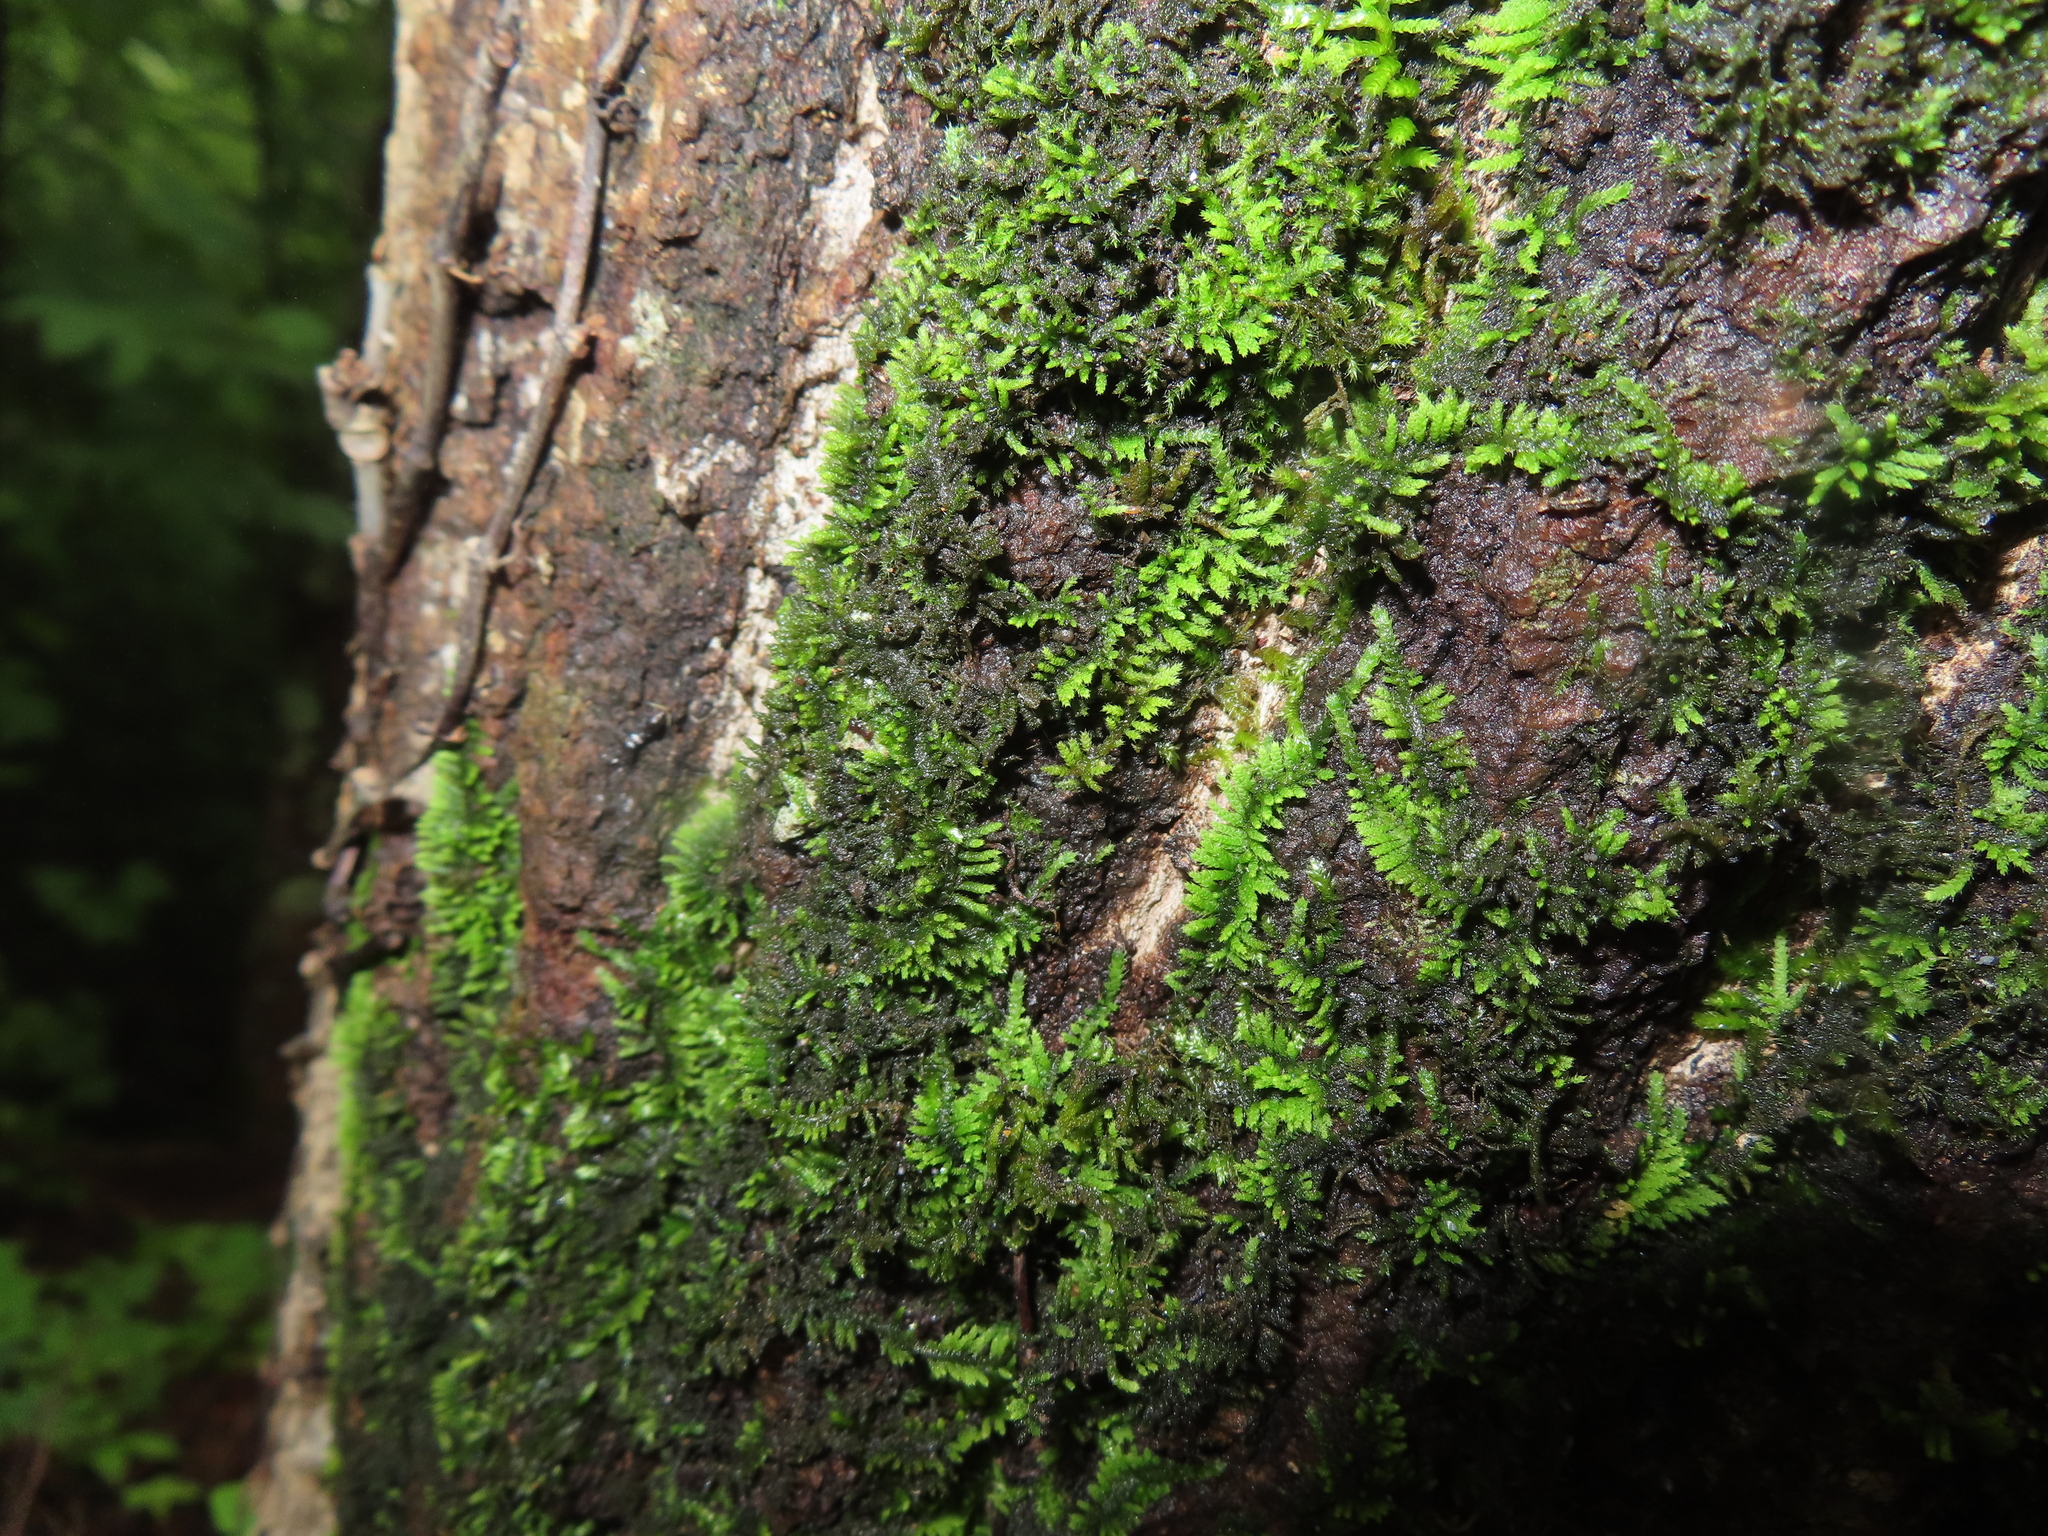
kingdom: Plantae
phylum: Bryophyta
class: Bryopsida
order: Hypnales
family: Theliaceae
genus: Thelia
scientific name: Thelia hirtella
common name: Common thelia
